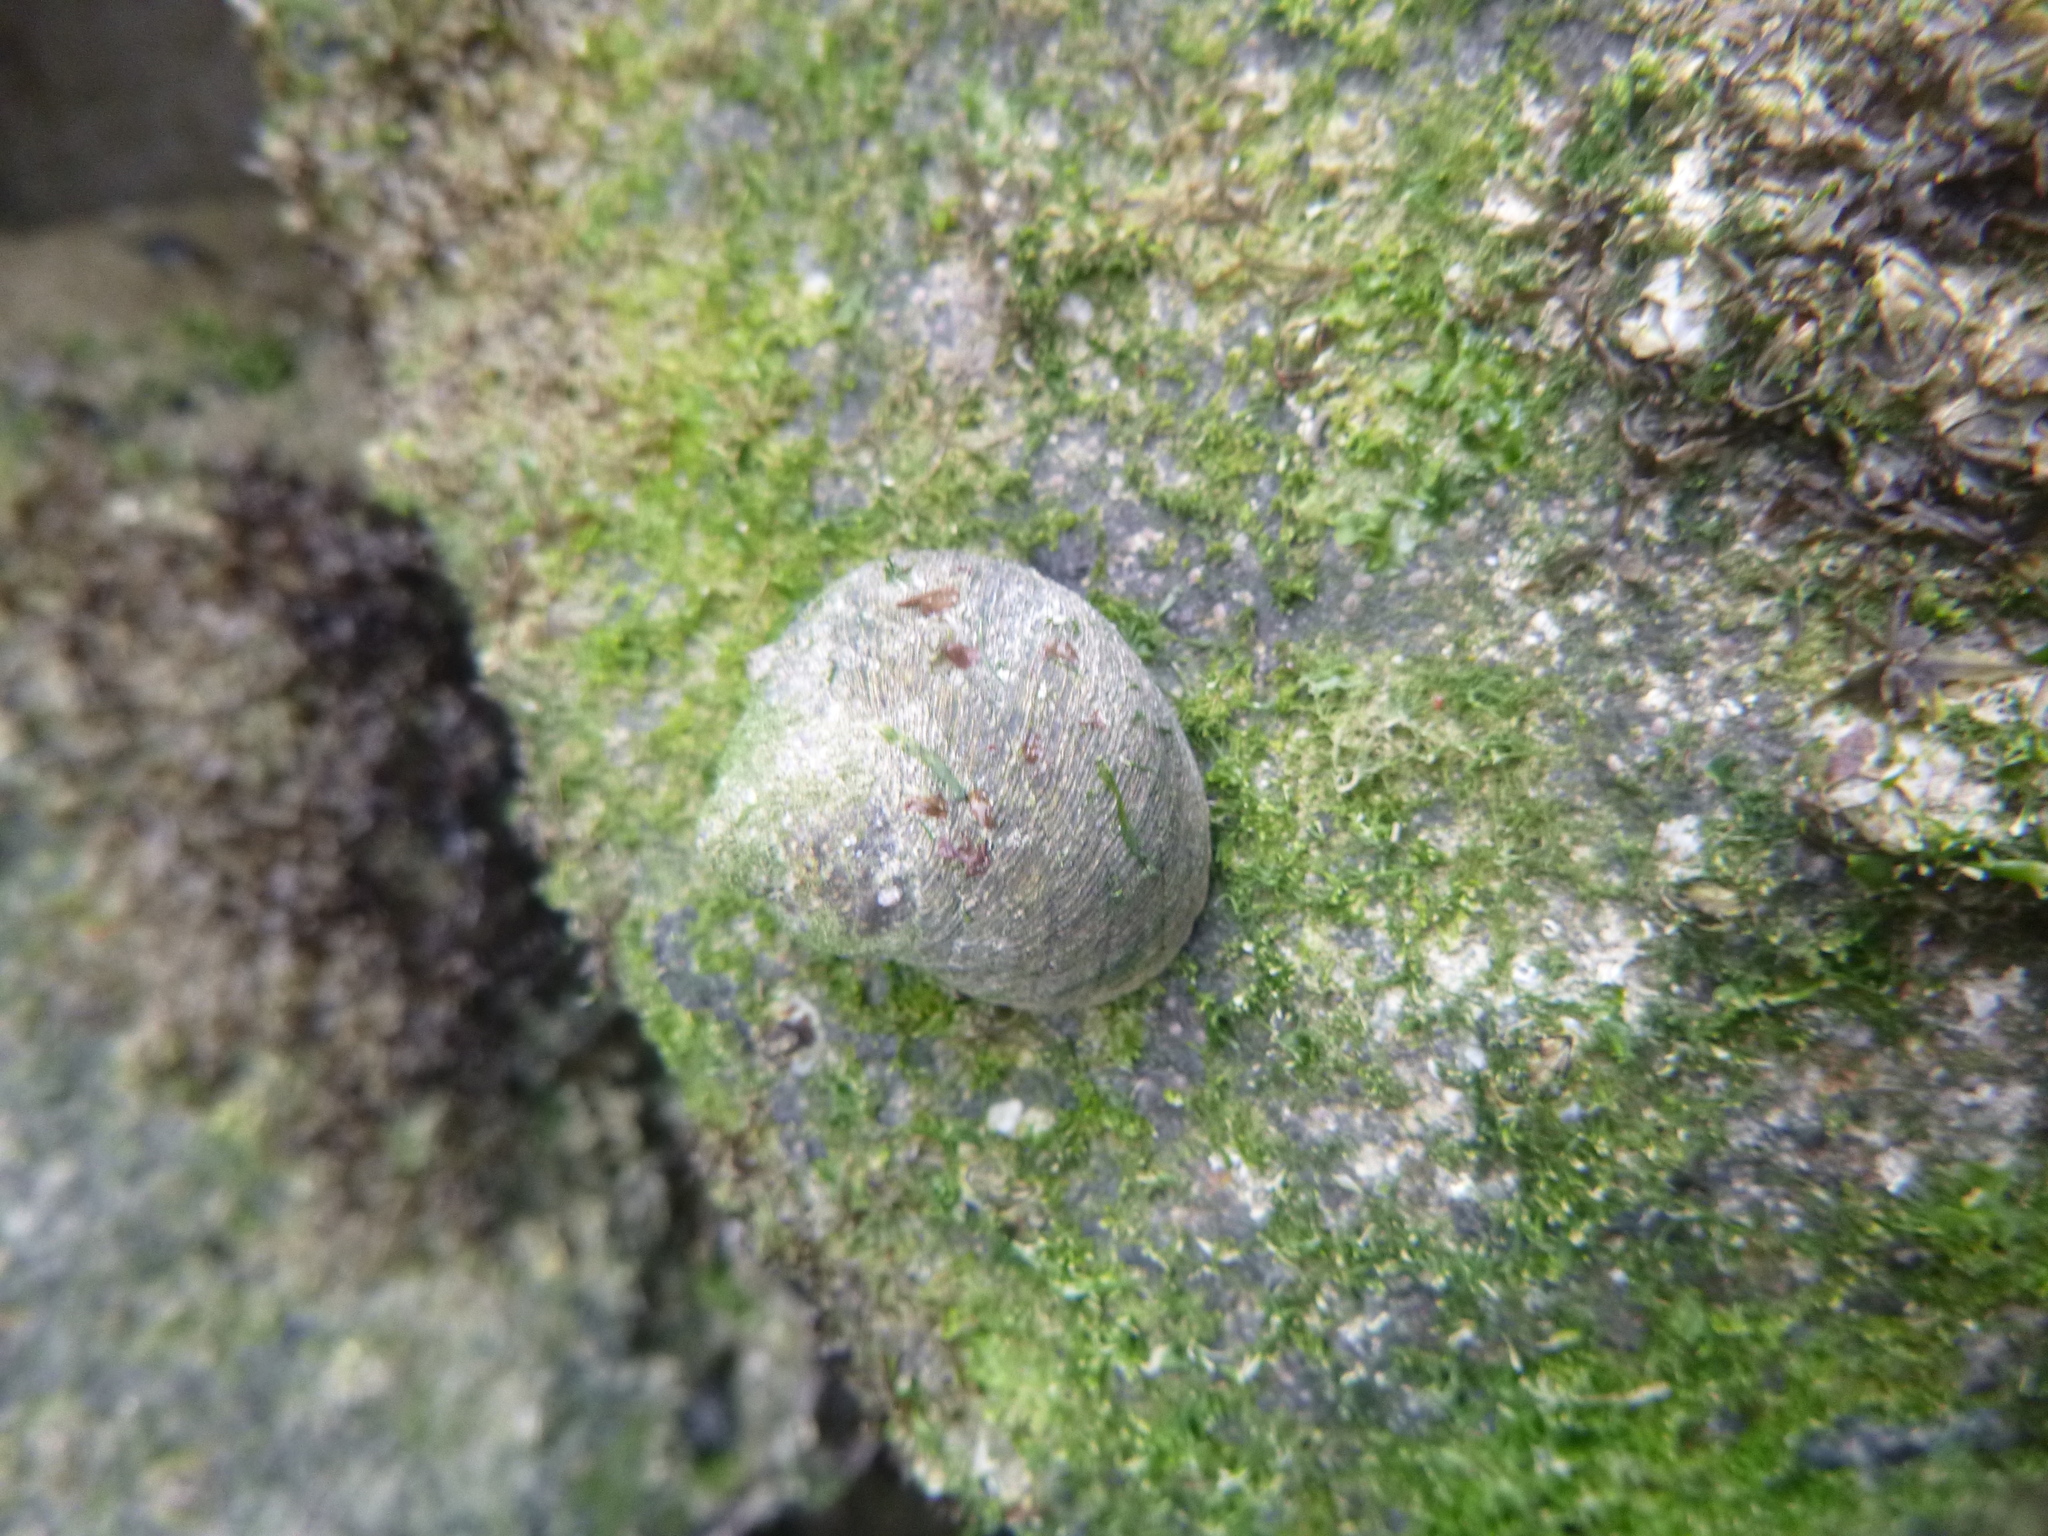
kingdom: Animalia
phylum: Mollusca
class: Gastropoda
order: Trochida
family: Trochidae
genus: Diloma
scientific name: Diloma aethiops
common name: Scorched monodont
